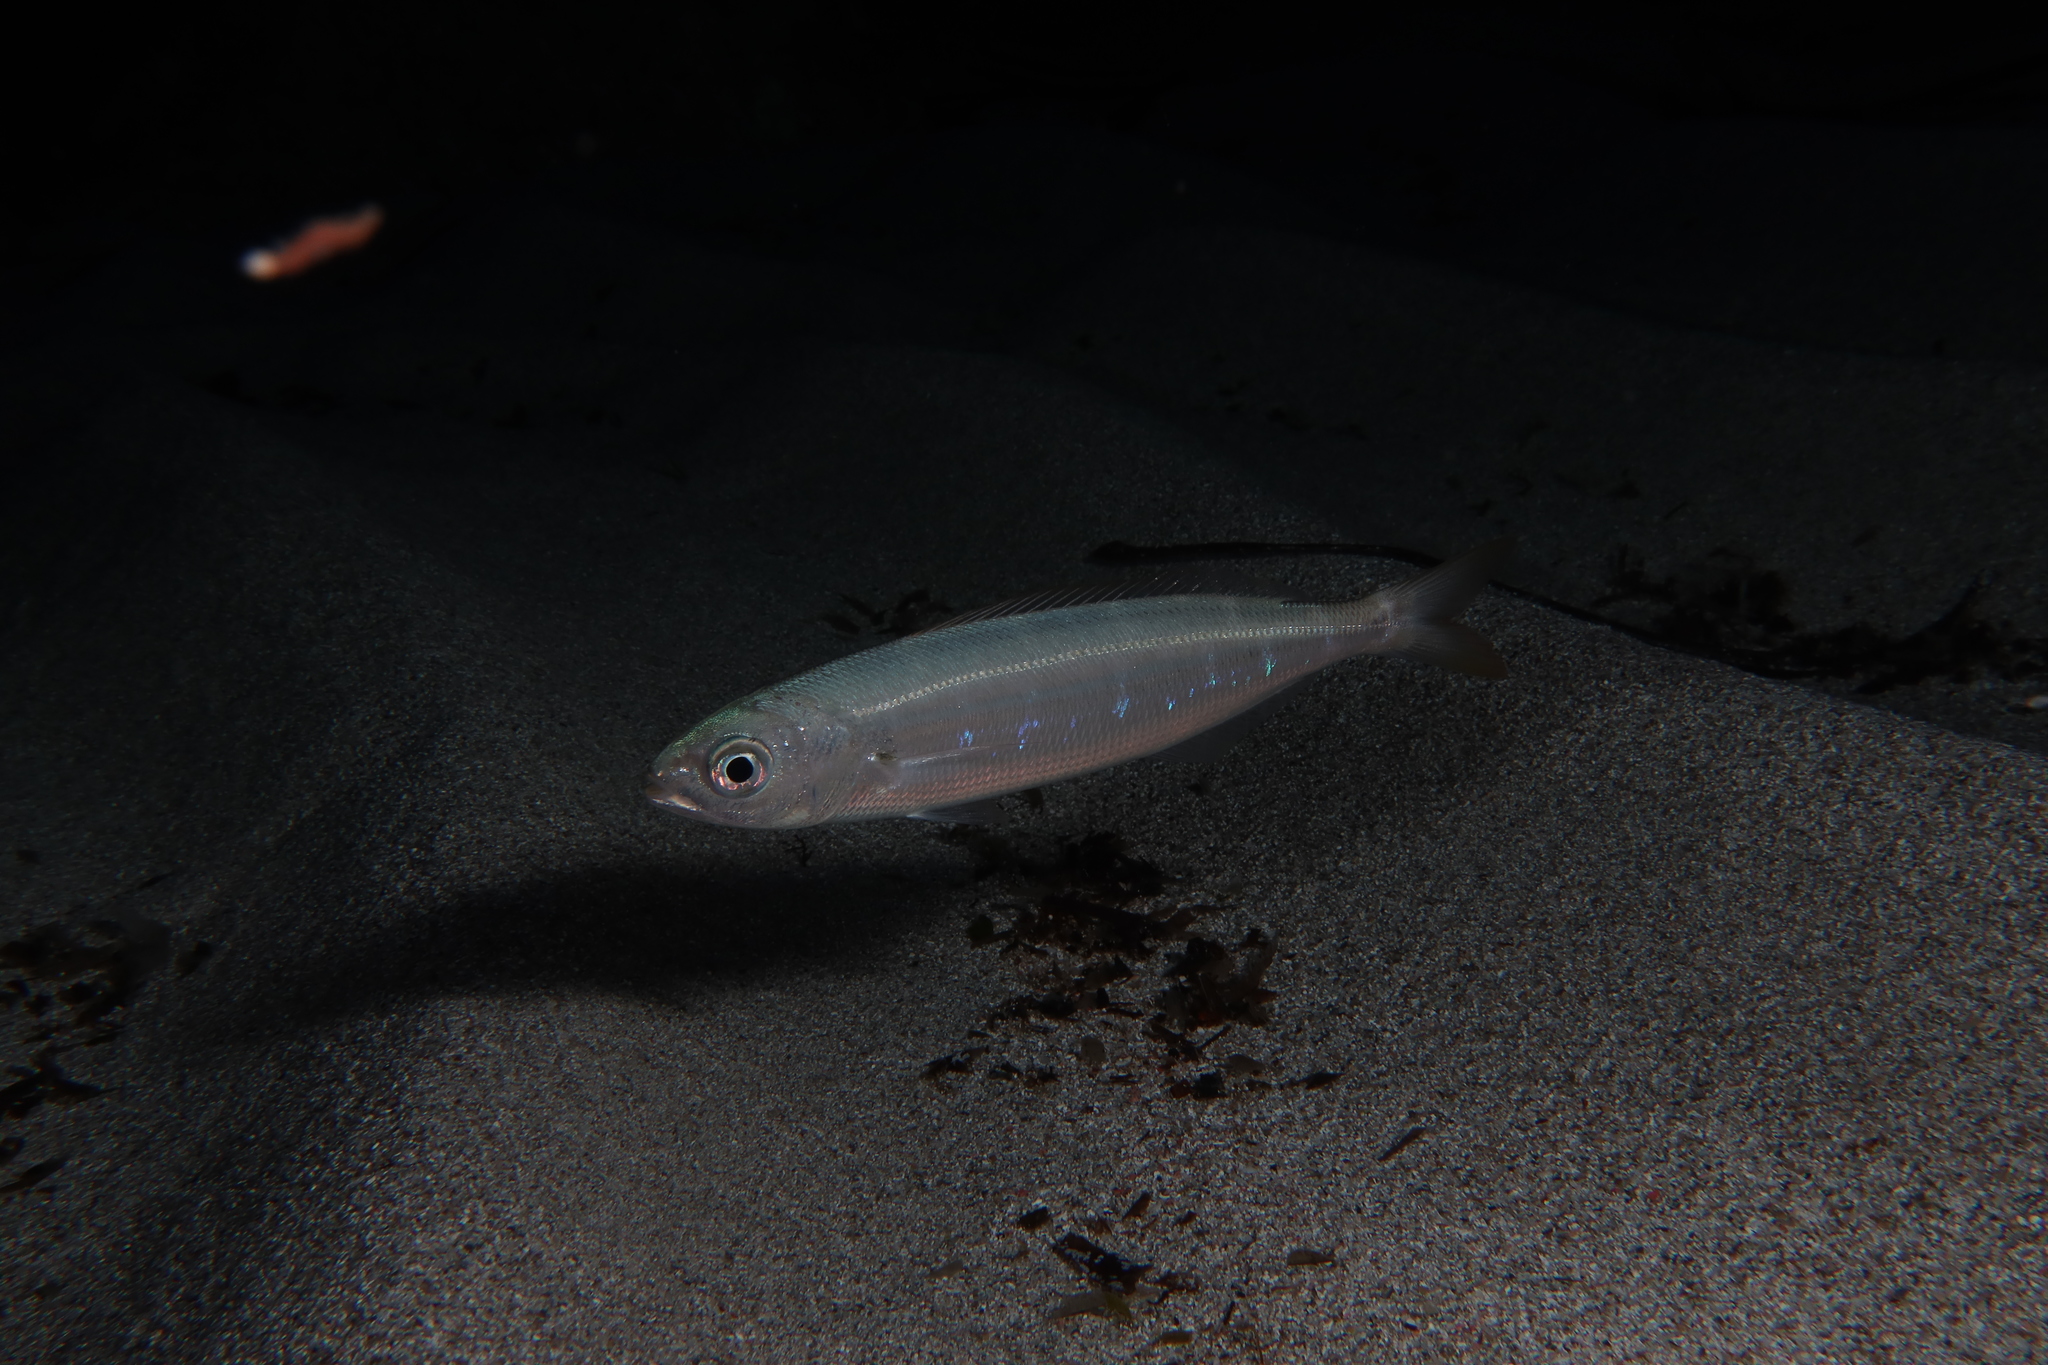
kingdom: Animalia
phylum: Chordata
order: Perciformes
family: Sparidae
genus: Boops
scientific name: Boops boops
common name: Bogue
